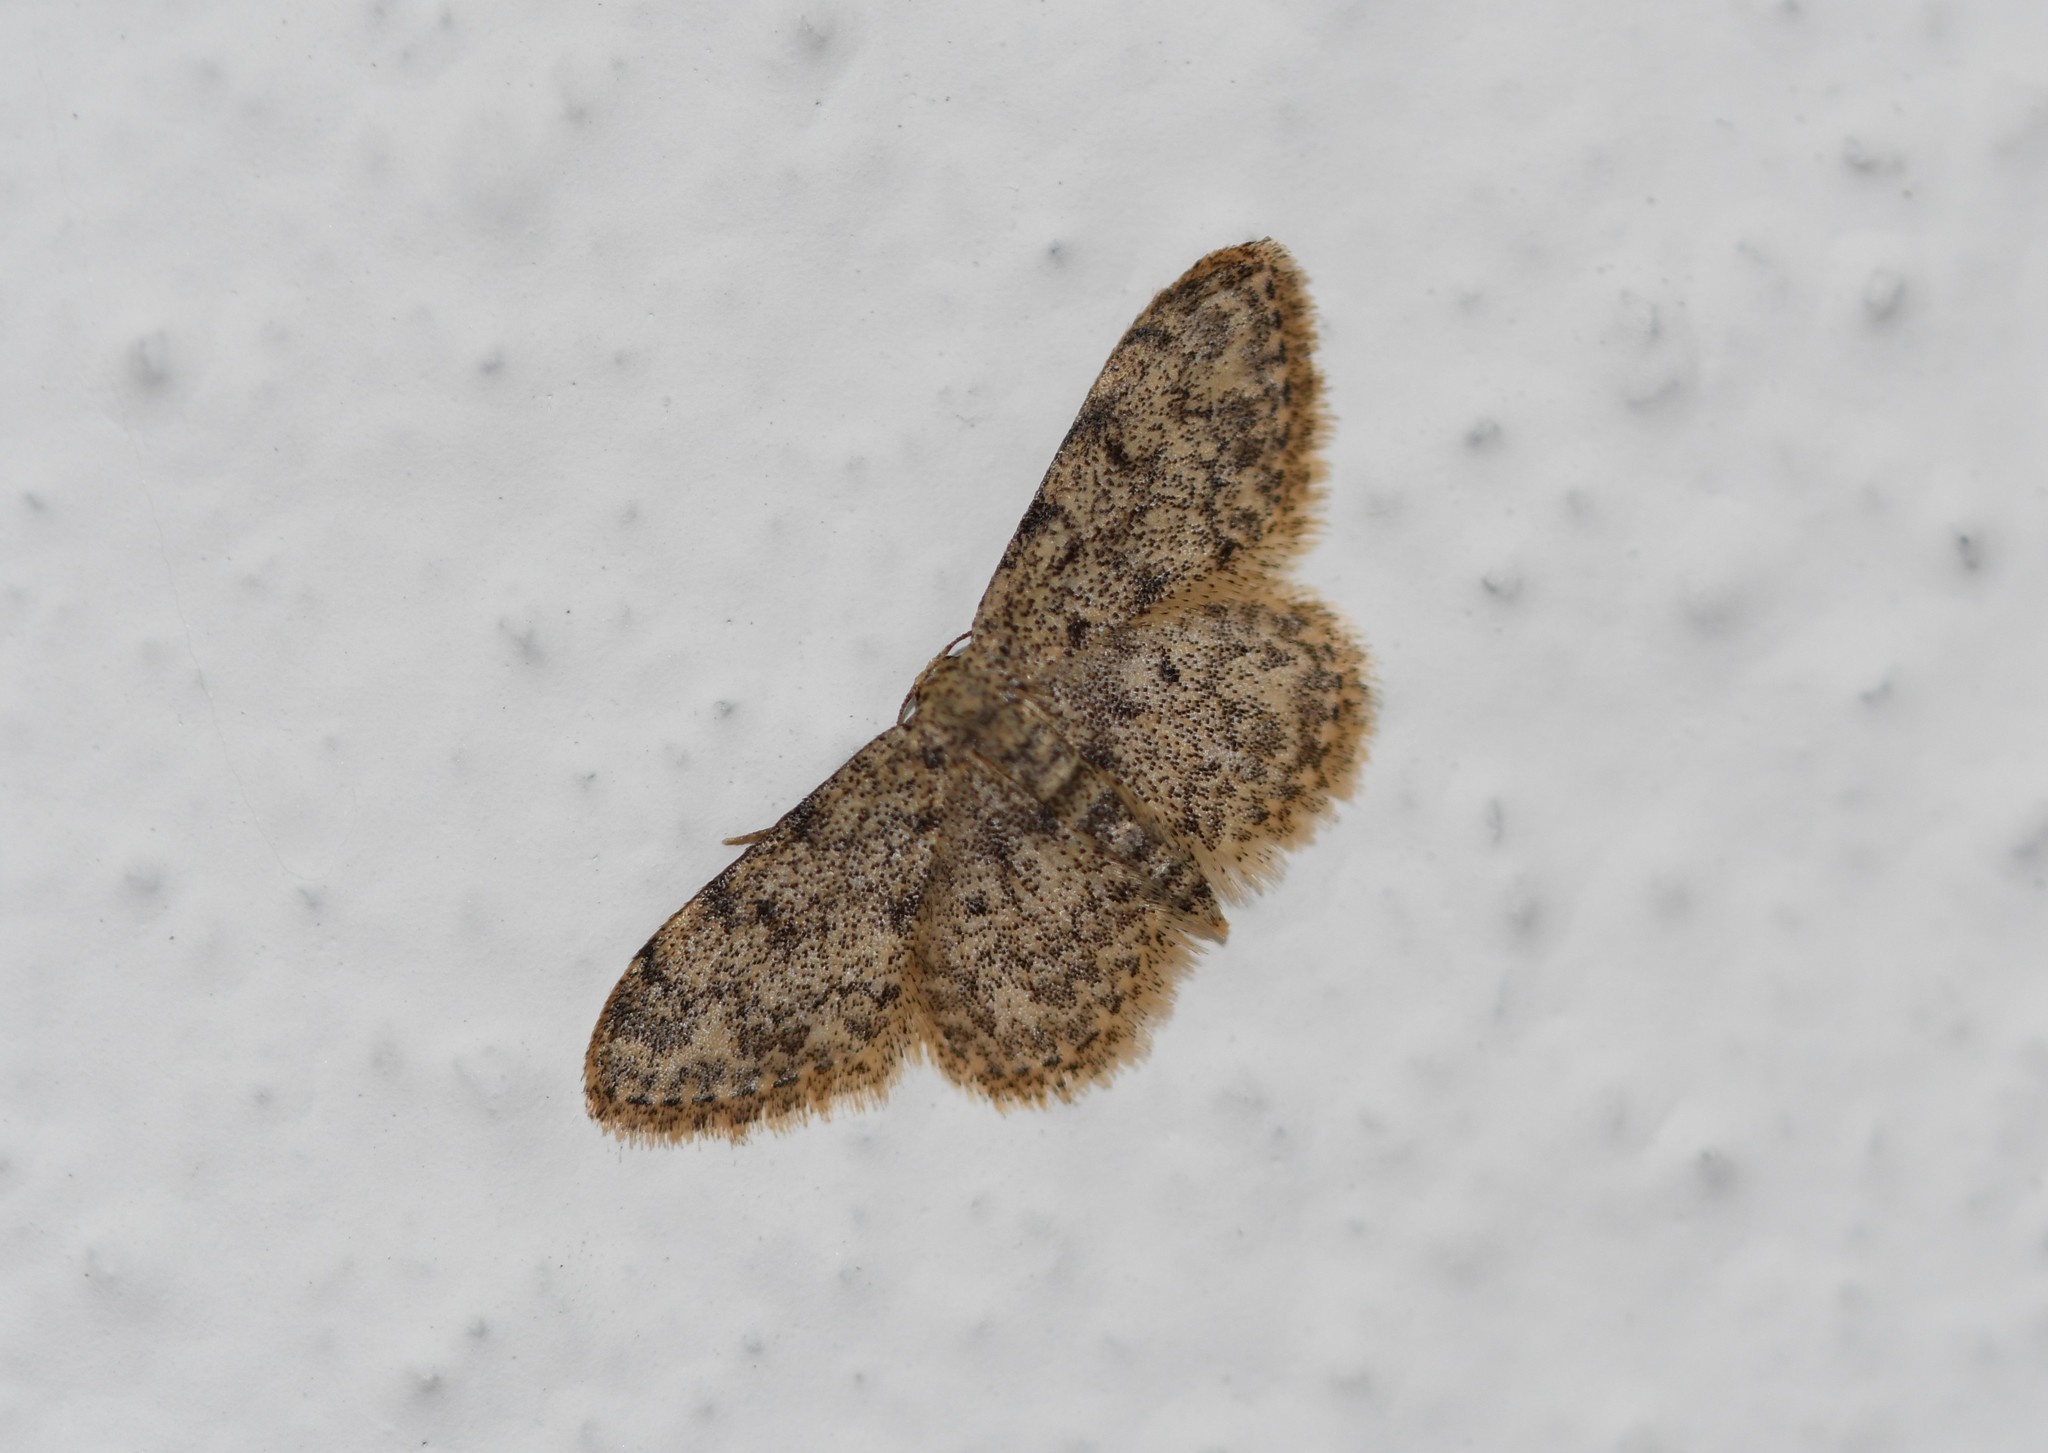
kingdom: Animalia
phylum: Arthropoda
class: Insecta
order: Lepidoptera
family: Geometridae
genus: Idaea
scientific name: Idaea cervantaria
